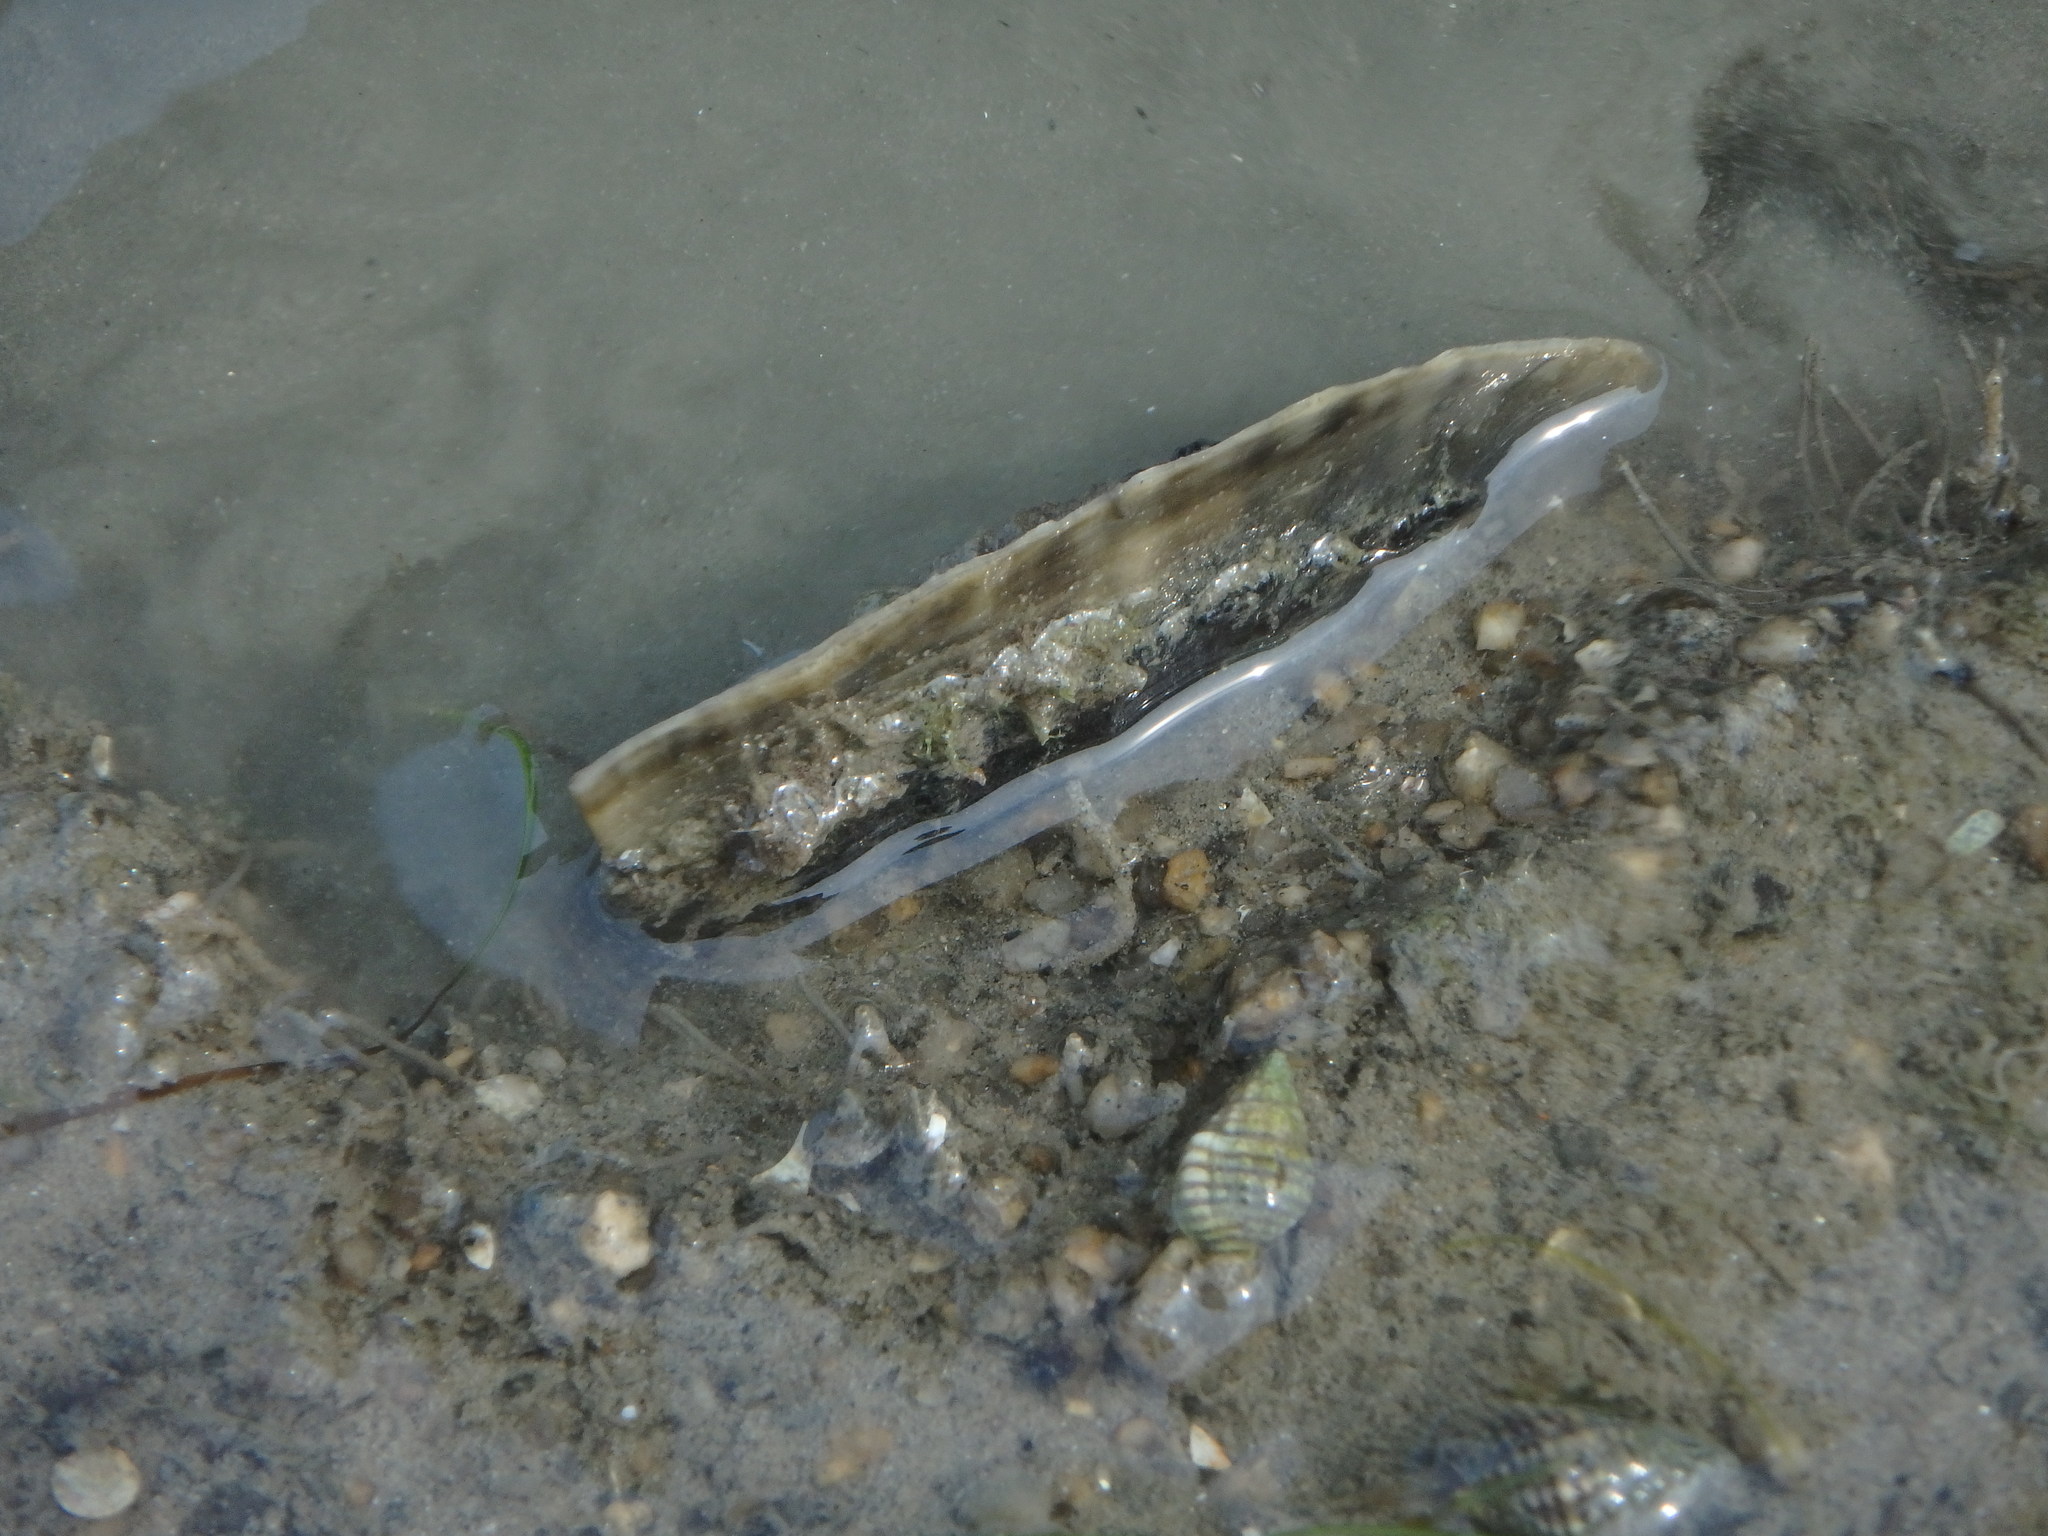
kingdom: Animalia
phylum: Mollusca
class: Bivalvia
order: Ostreida
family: Pinnidae
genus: Pinna
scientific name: Pinna bicolor
